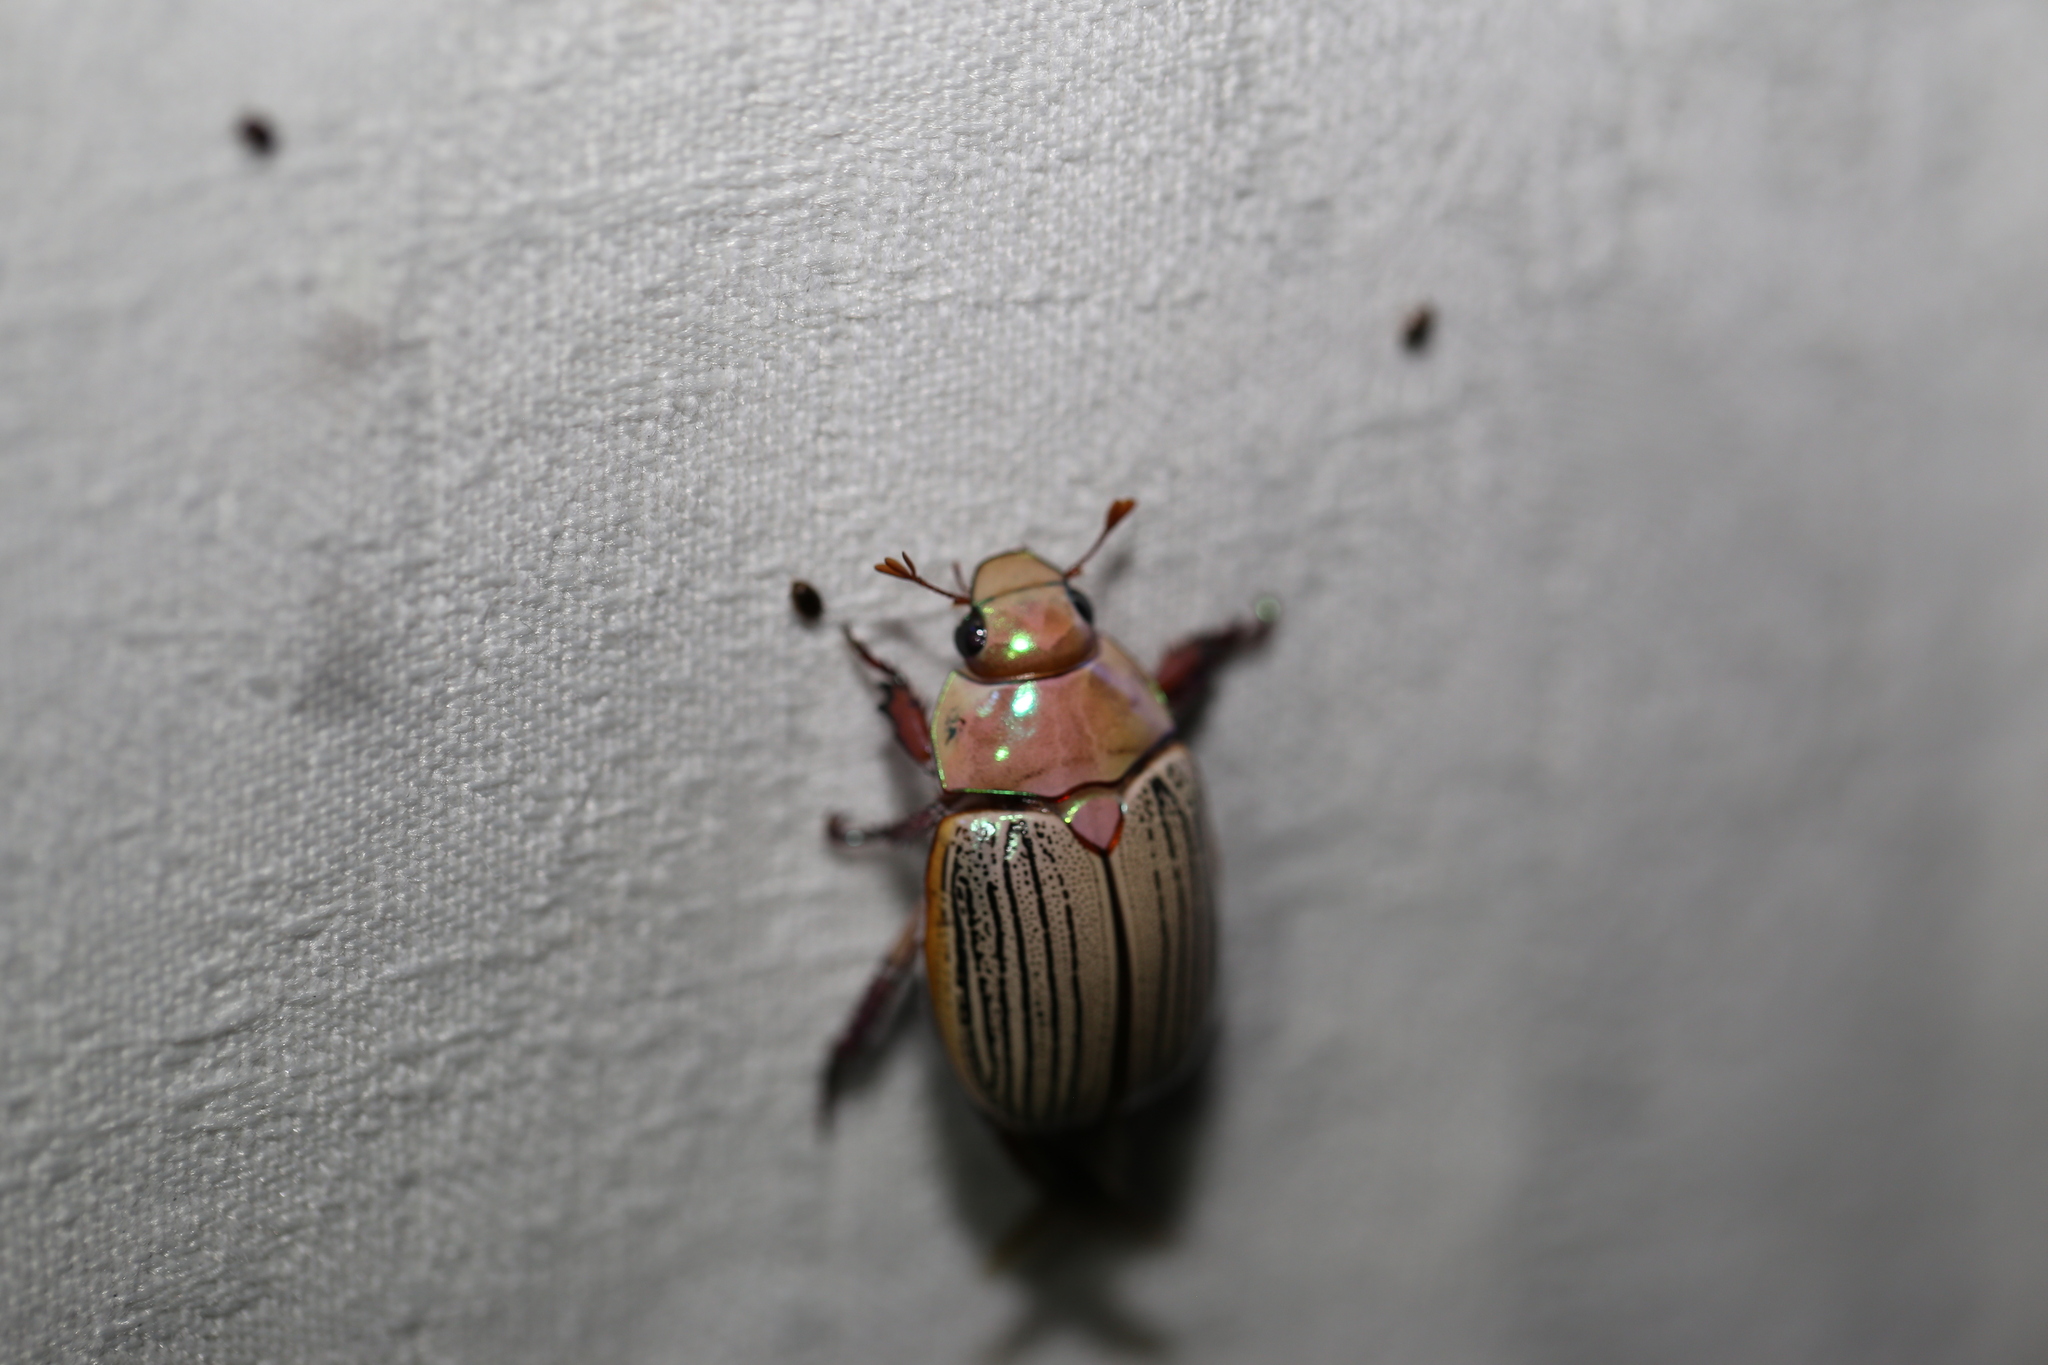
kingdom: Animalia
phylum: Arthropoda
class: Insecta
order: Coleoptera
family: Scarabaeidae
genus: Anoplognathus
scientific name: Anoplognathus boisduvali
